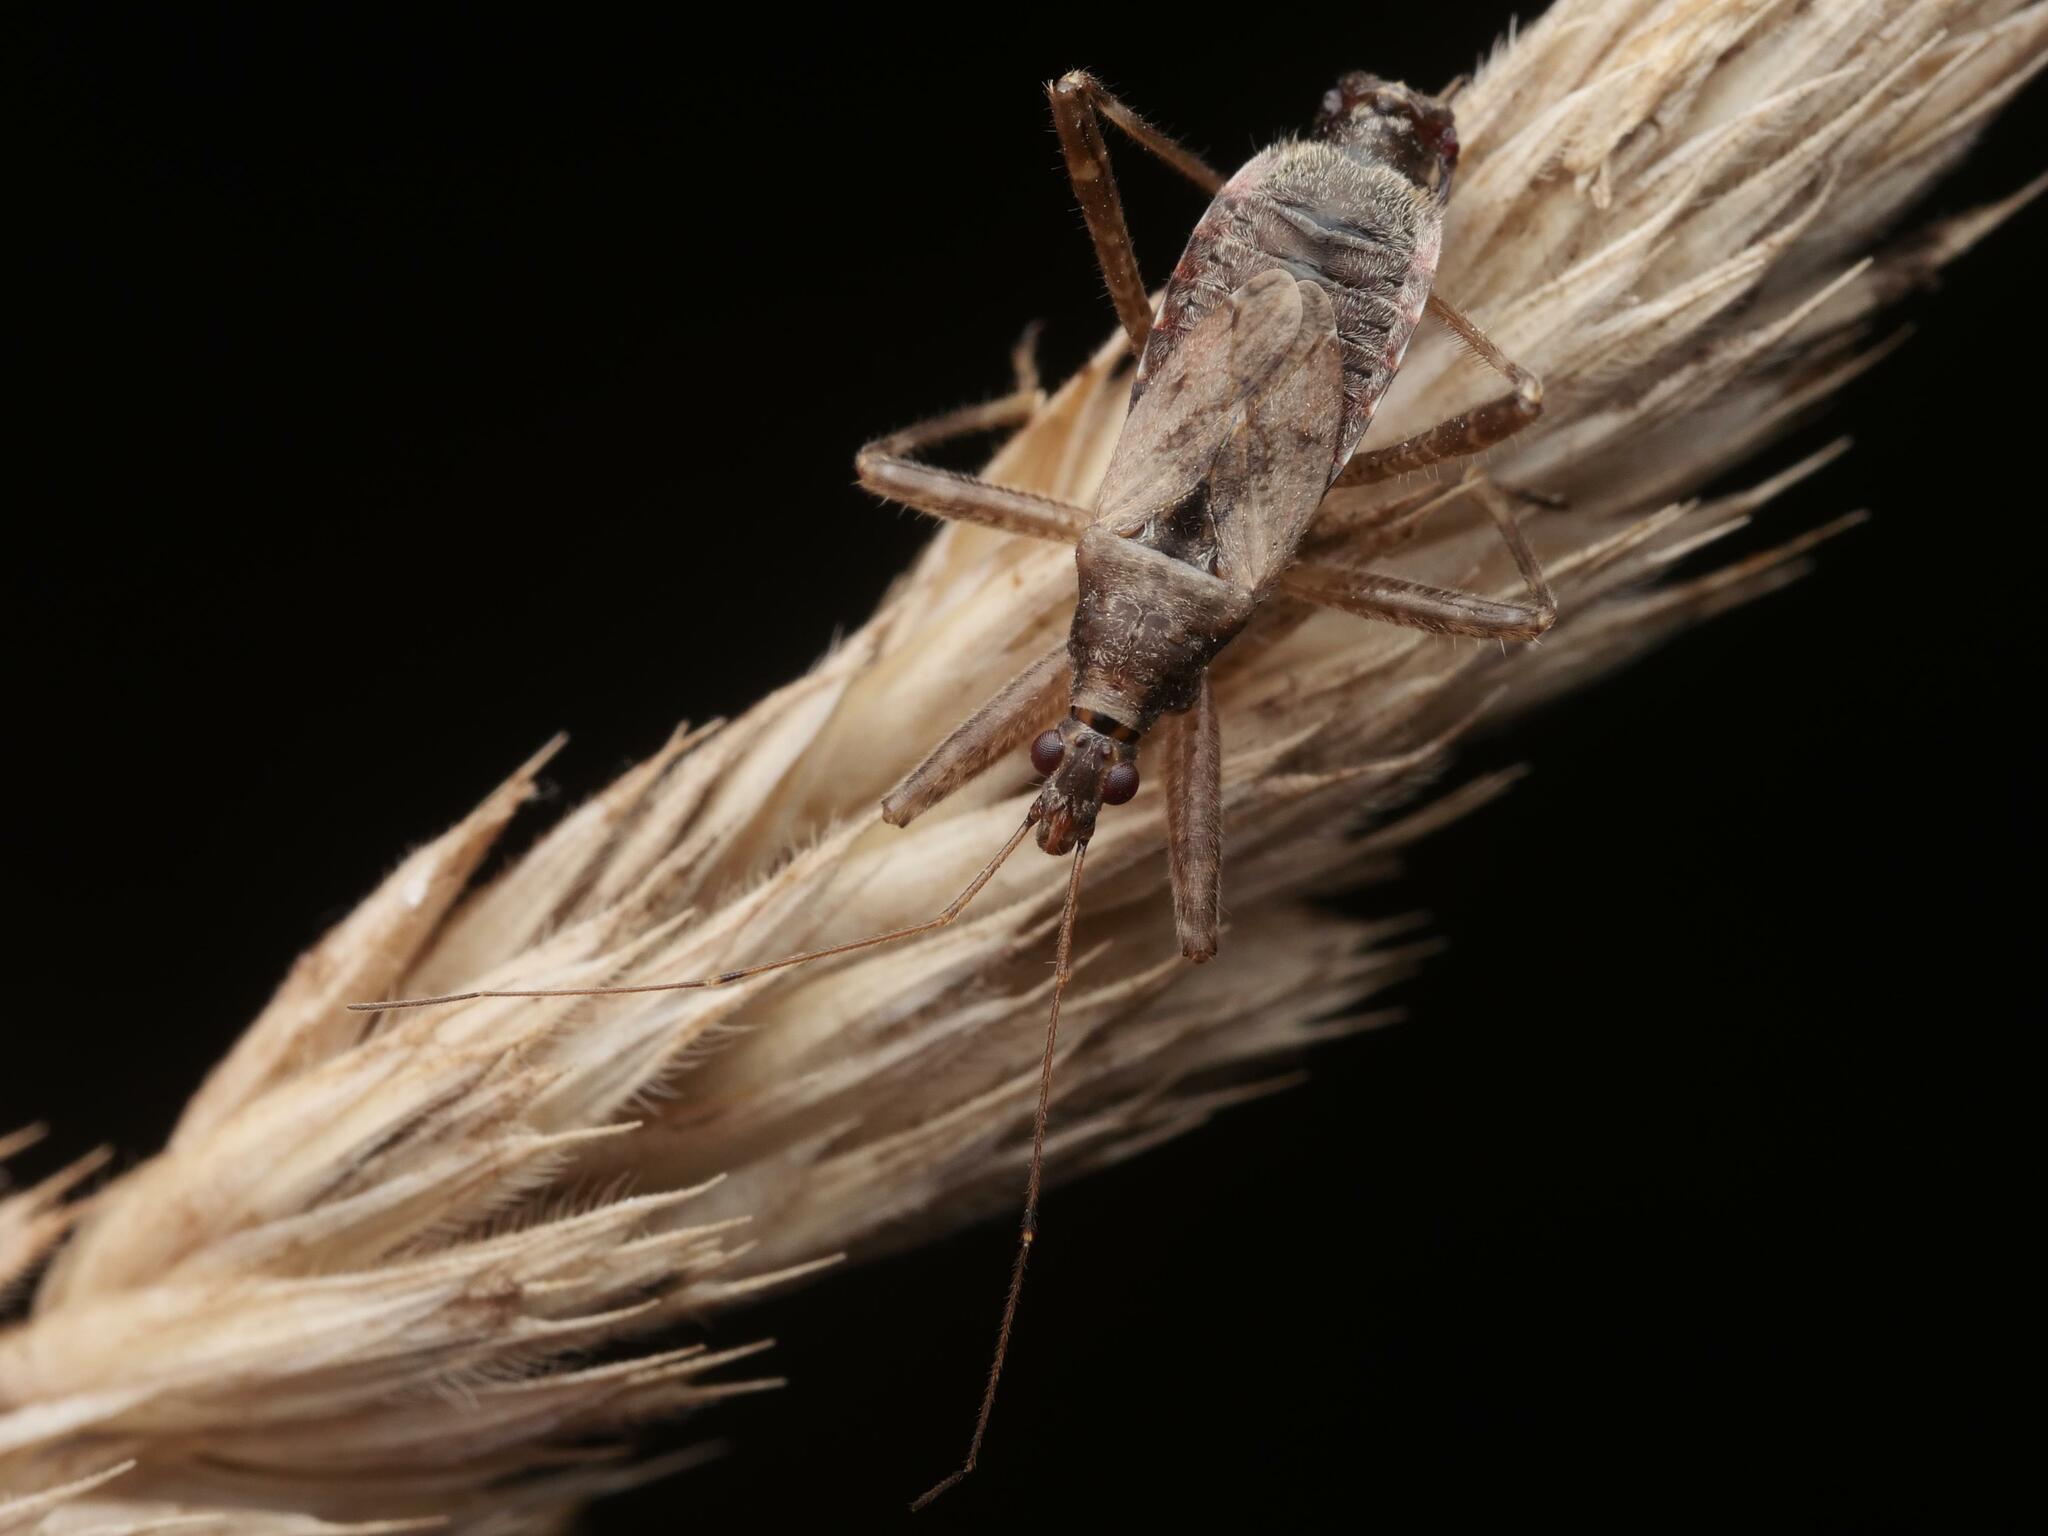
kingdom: Animalia
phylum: Arthropoda
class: Insecta
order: Hemiptera
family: Nabidae
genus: Himacerus
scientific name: Himacerus apterus
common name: Tree damsel bug
